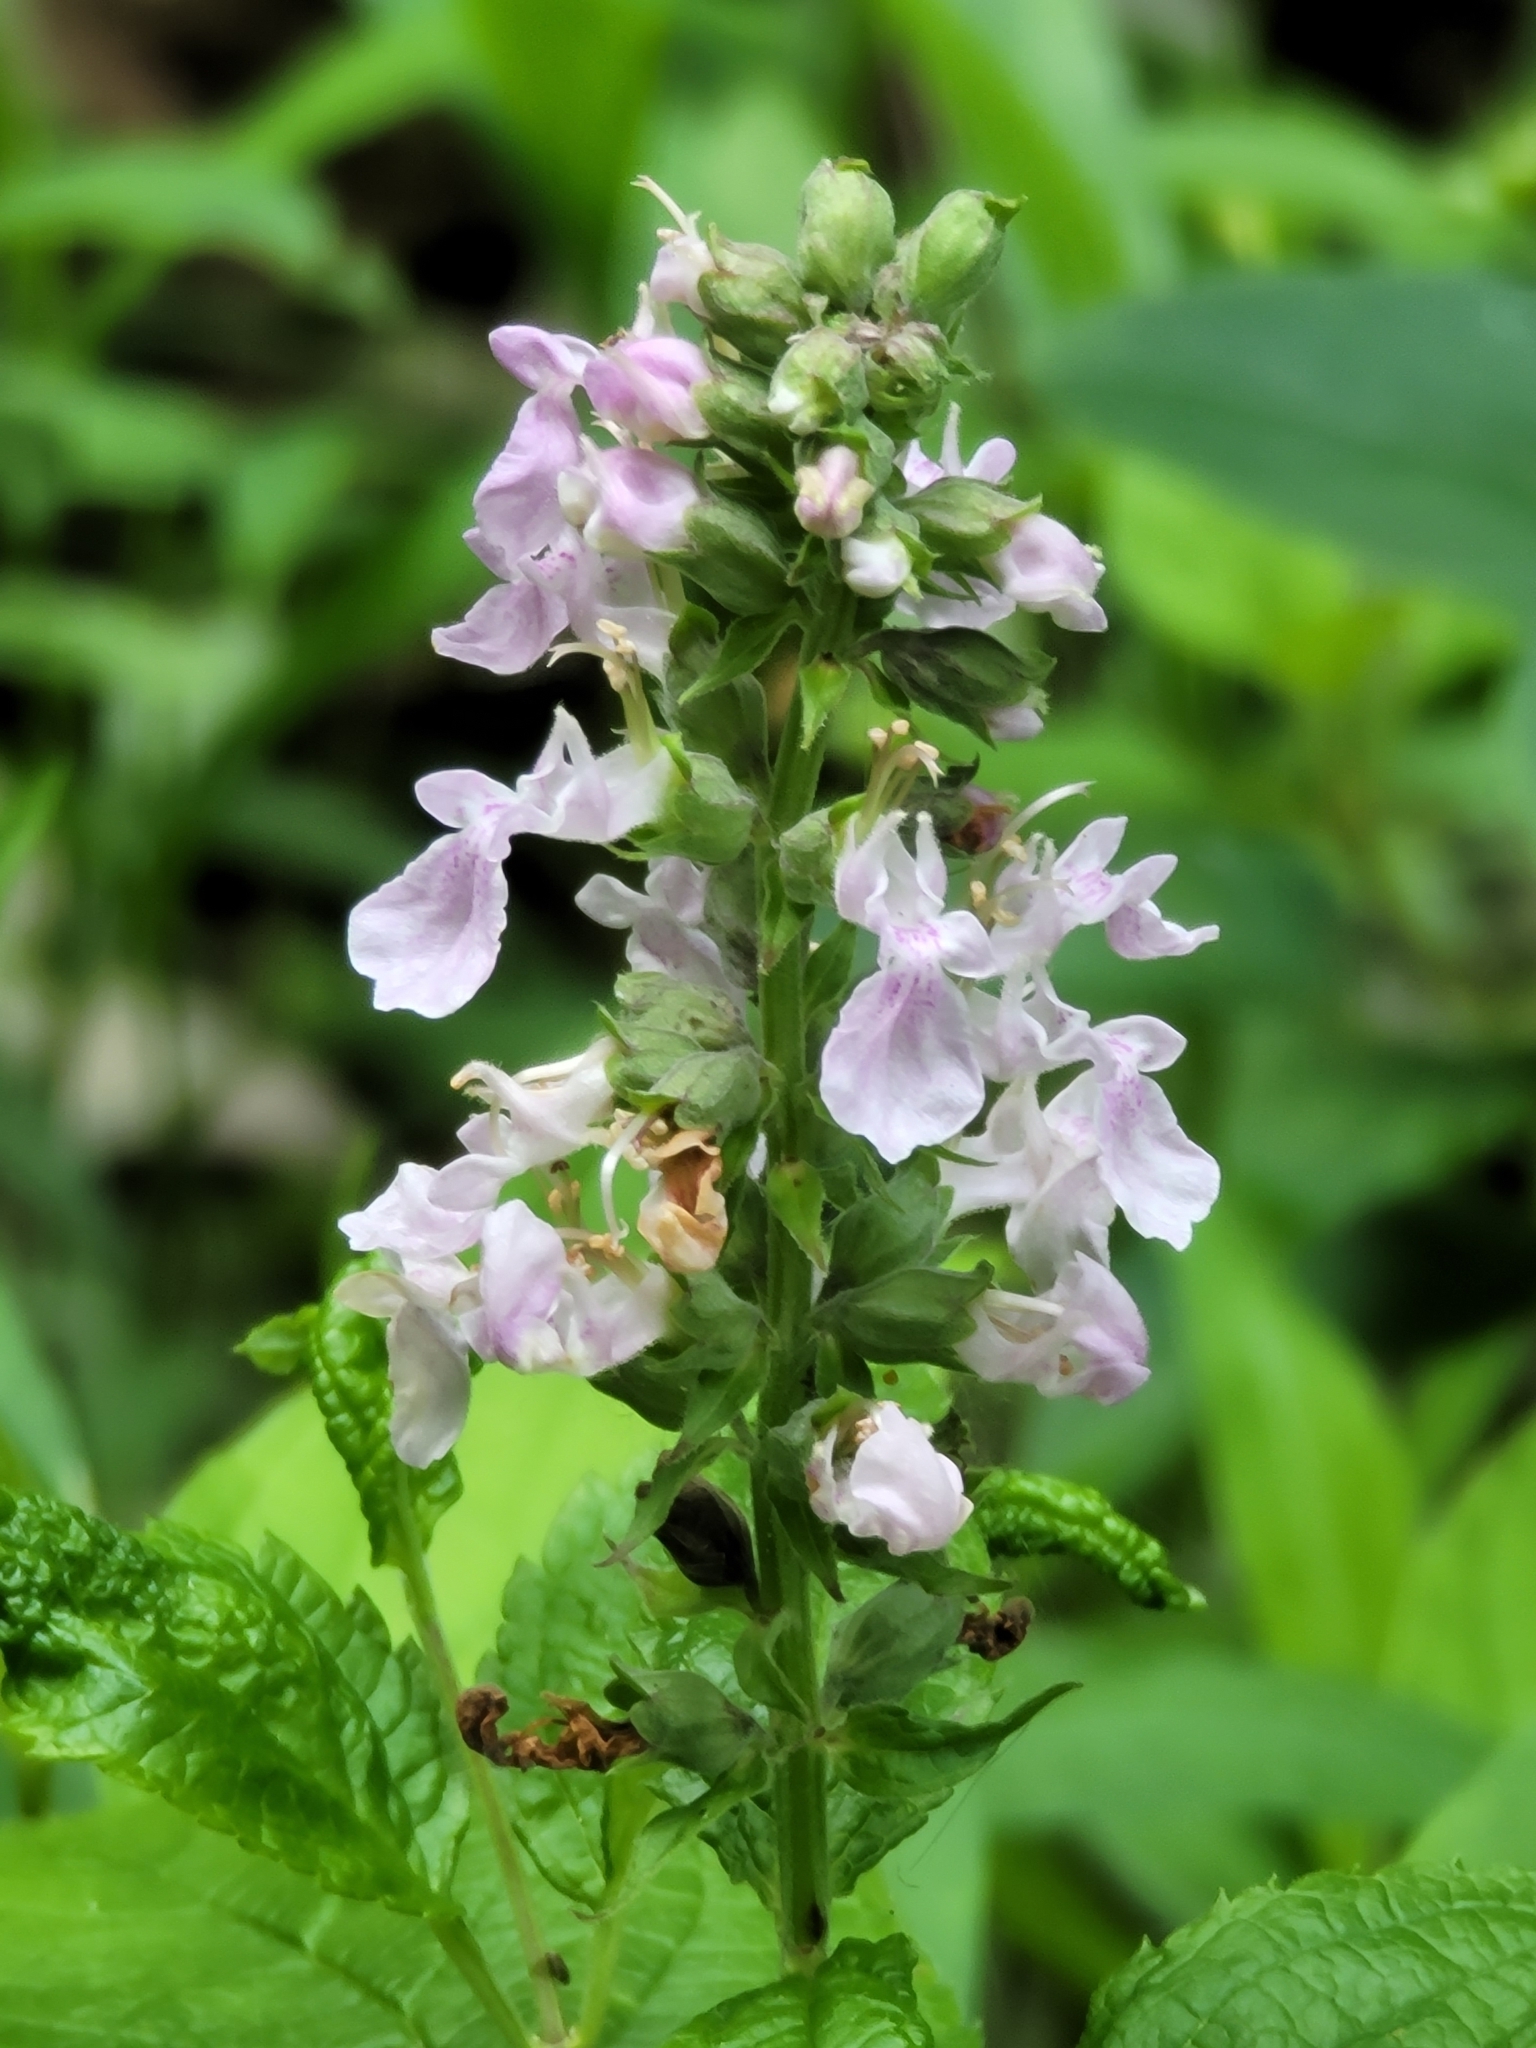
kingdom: Plantae
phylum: Tracheophyta
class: Magnoliopsida
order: Lamiales
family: Lamiaceae
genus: Teucrium
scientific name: Teucrium canadense
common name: American germander
